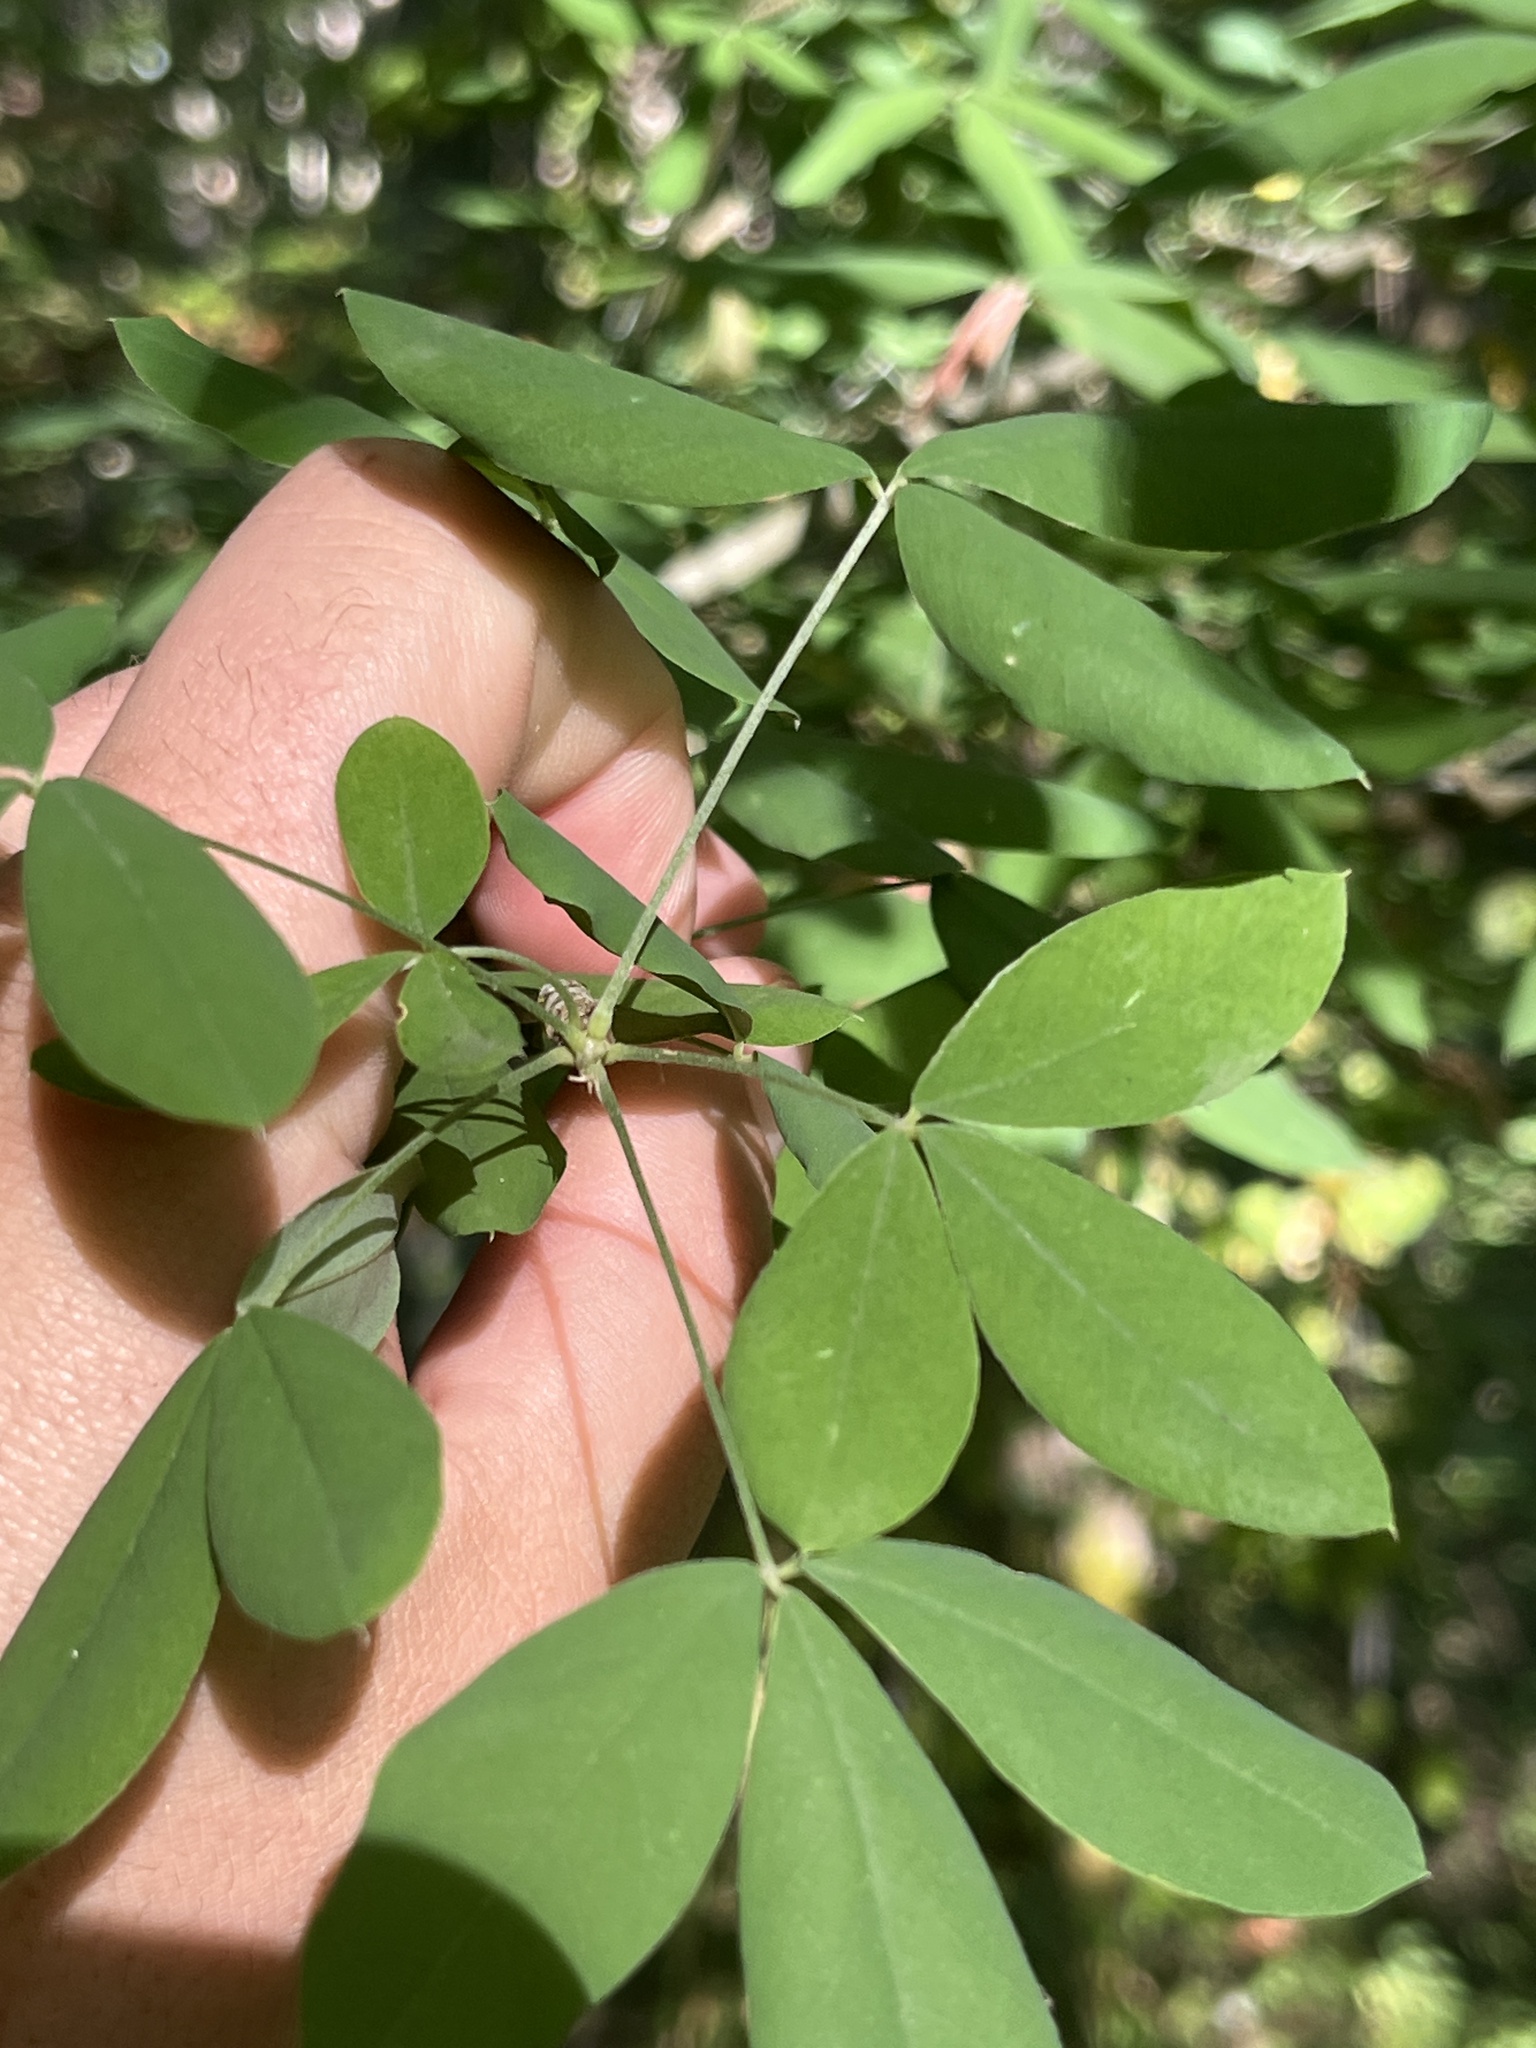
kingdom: Plantae
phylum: Tracheophyta
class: Magnoliopsida
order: Fabales
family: Fabaceae
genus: Laburnum
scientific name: Laburnum anagyroides
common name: Laburnum
